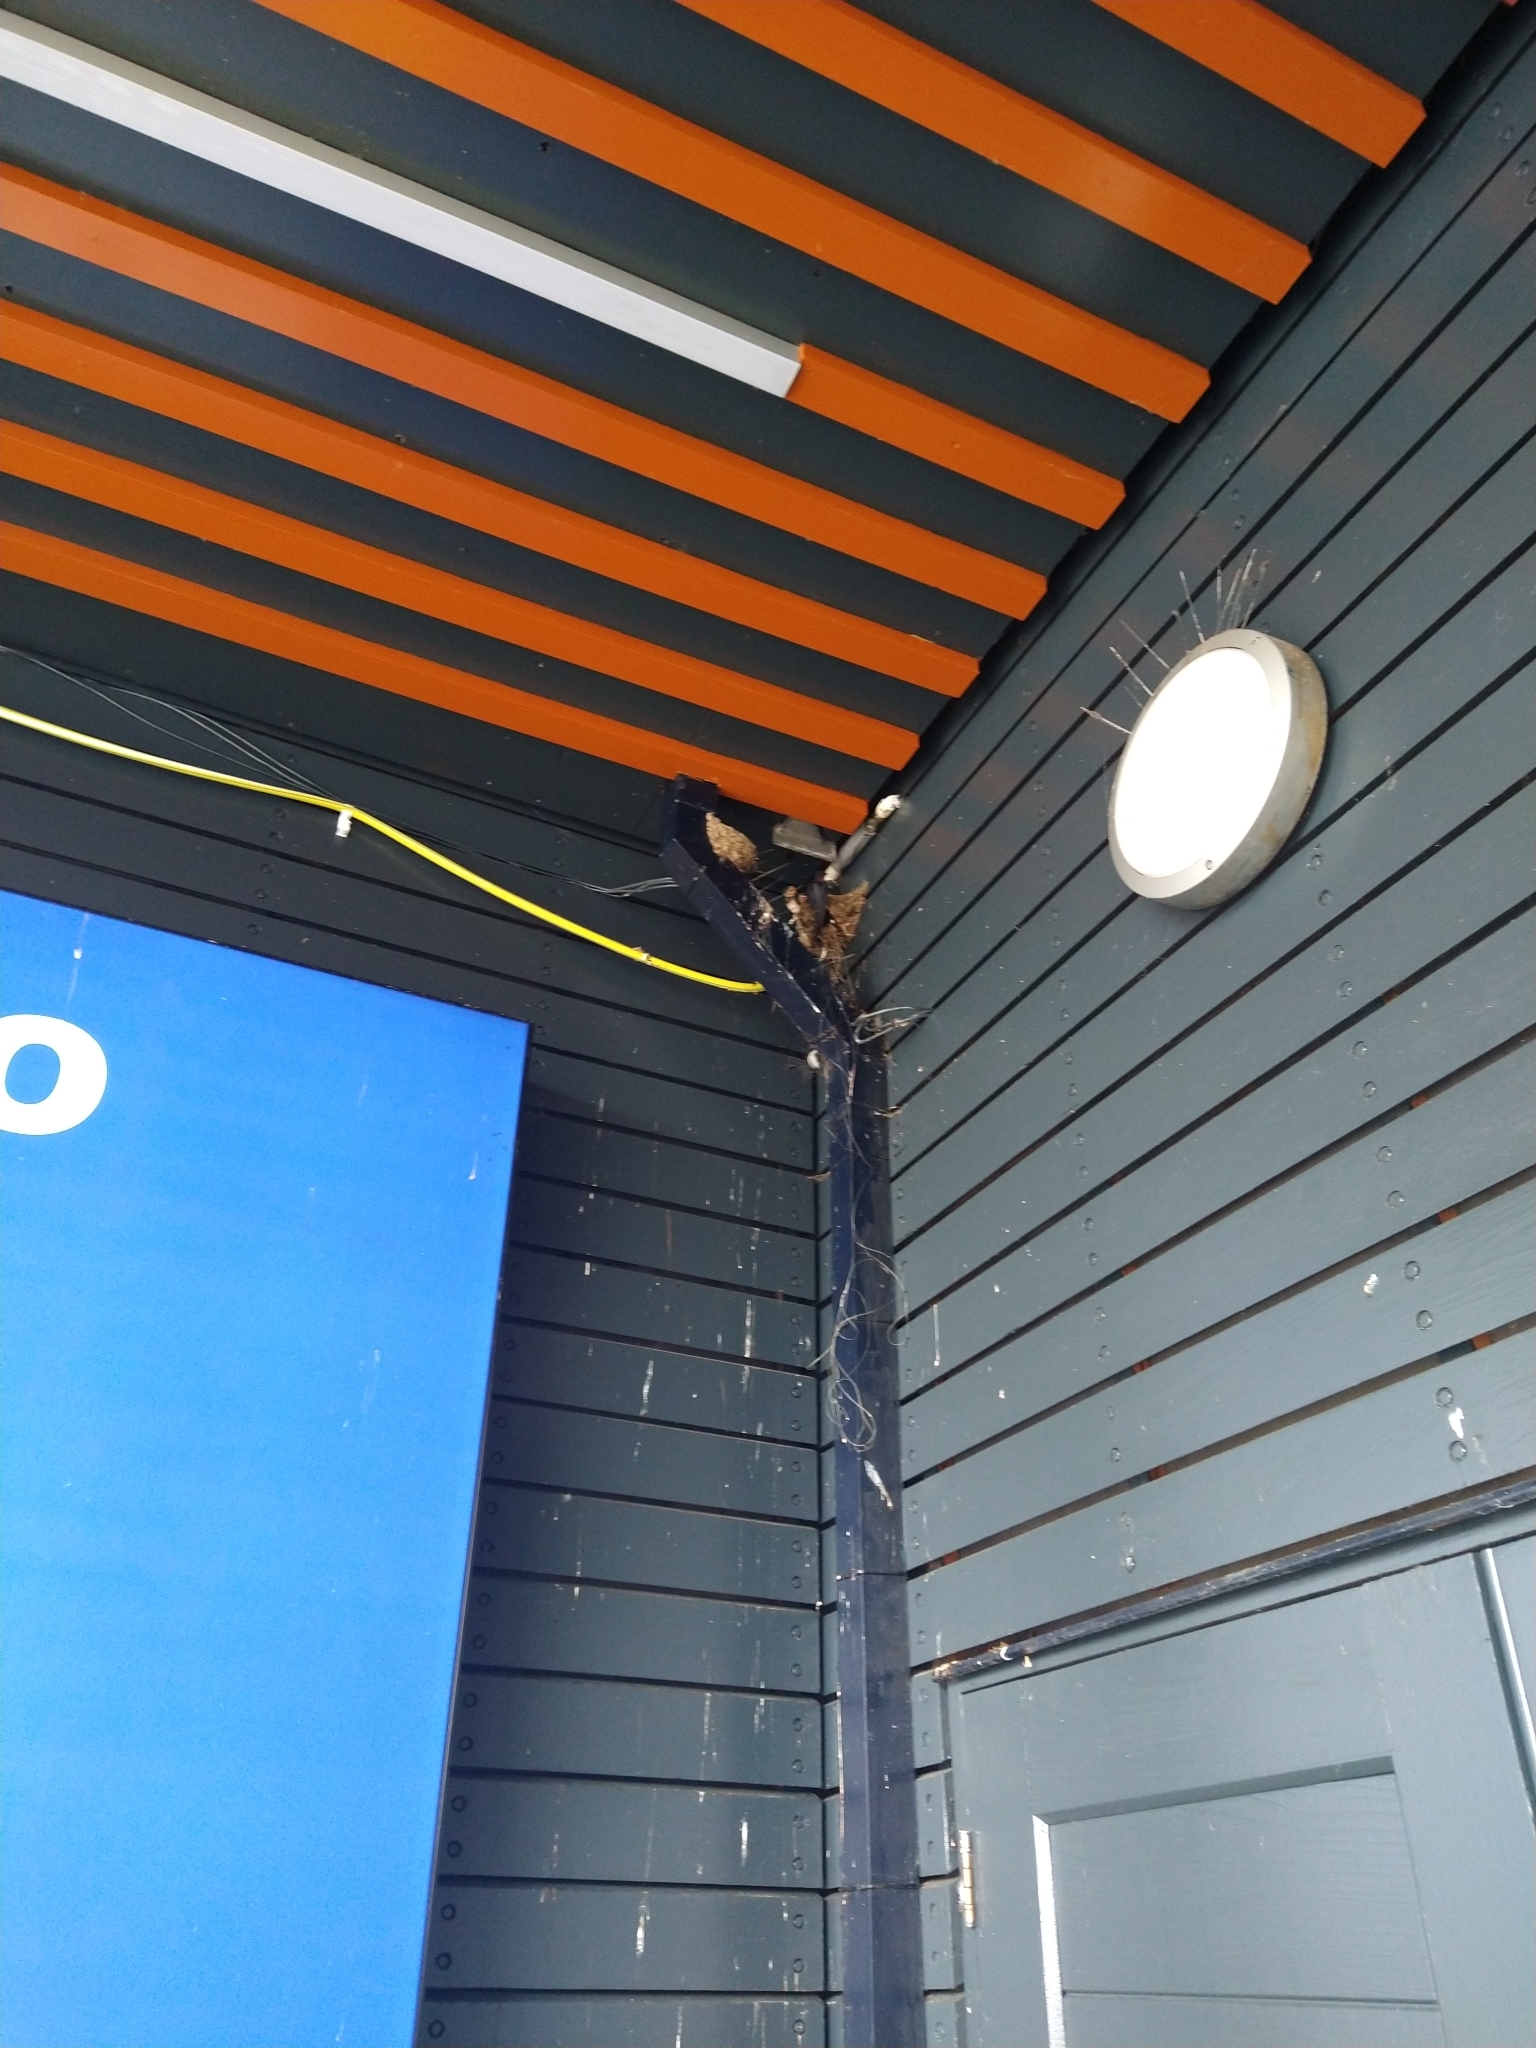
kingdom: Animalia
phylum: Chordata
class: Aves
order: Passeriformes
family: Hirundinidae
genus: Hirundo
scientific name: Hirundo rustica
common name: Barn swallow
